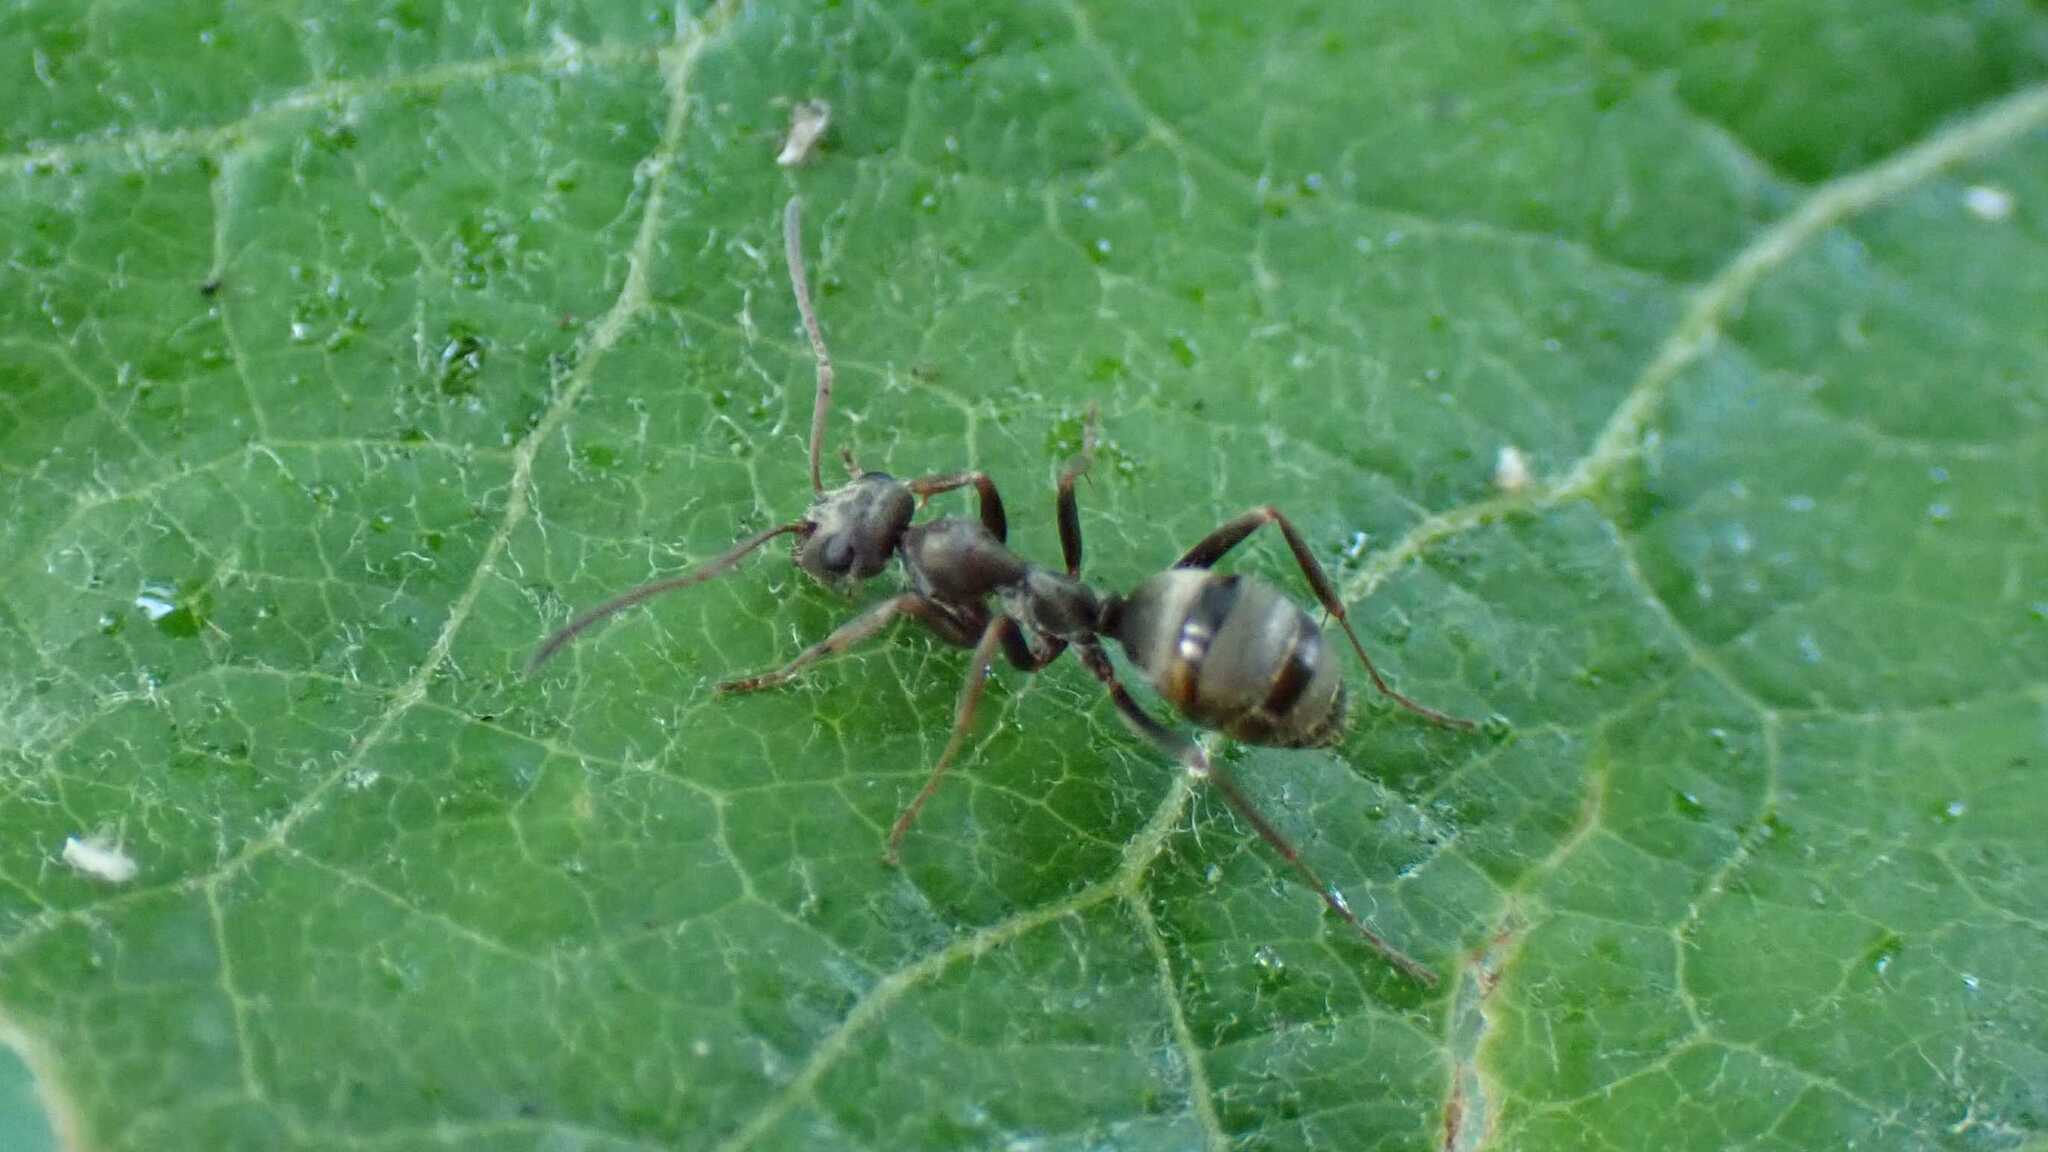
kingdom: Animalia
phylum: Arthropoda
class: Insecta
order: Hymenoptera
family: Formicidae
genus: Formica
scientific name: Formica cinerea
